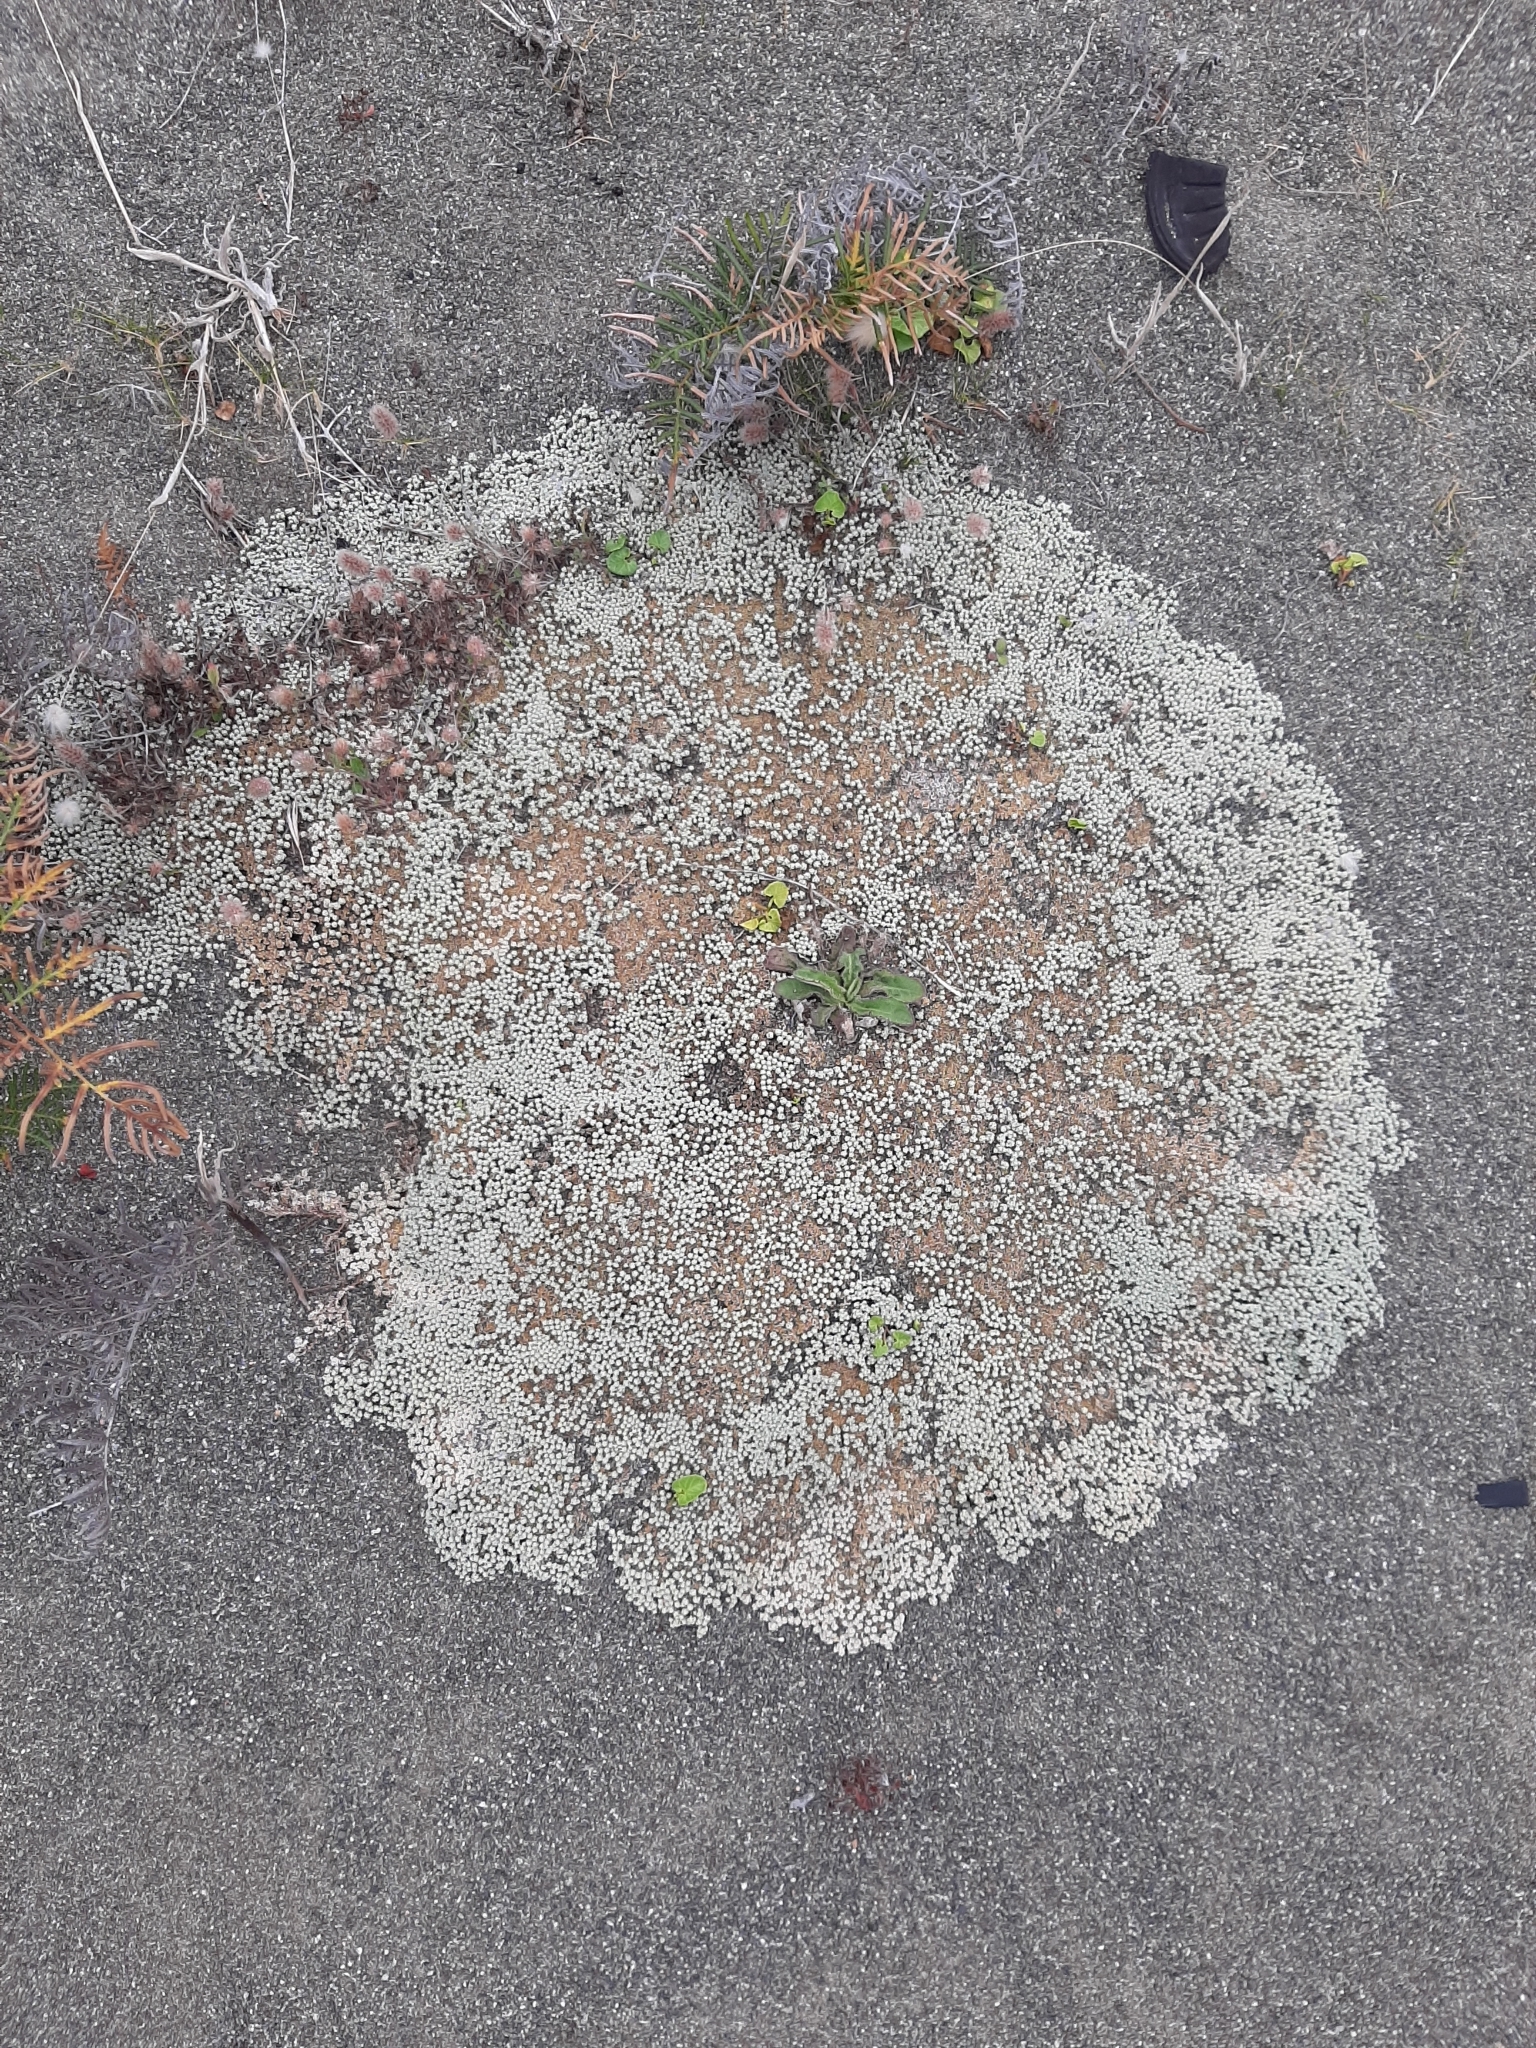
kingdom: Plantae
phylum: Tracheophyta
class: Magnoliopsida
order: Asterales
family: Asteraceae
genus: Raoulia
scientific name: Raoulia australis
